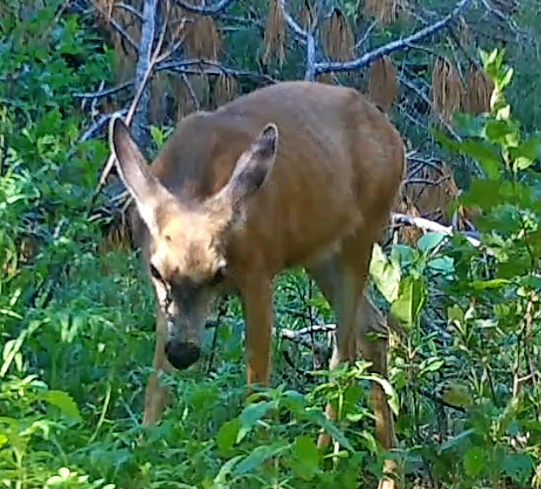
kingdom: Animalia
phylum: Chordata
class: Mammalia
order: Artiodactyla
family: Cervidae
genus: Odocoileus
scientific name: Odocoileus hemionus
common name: Mule deer
